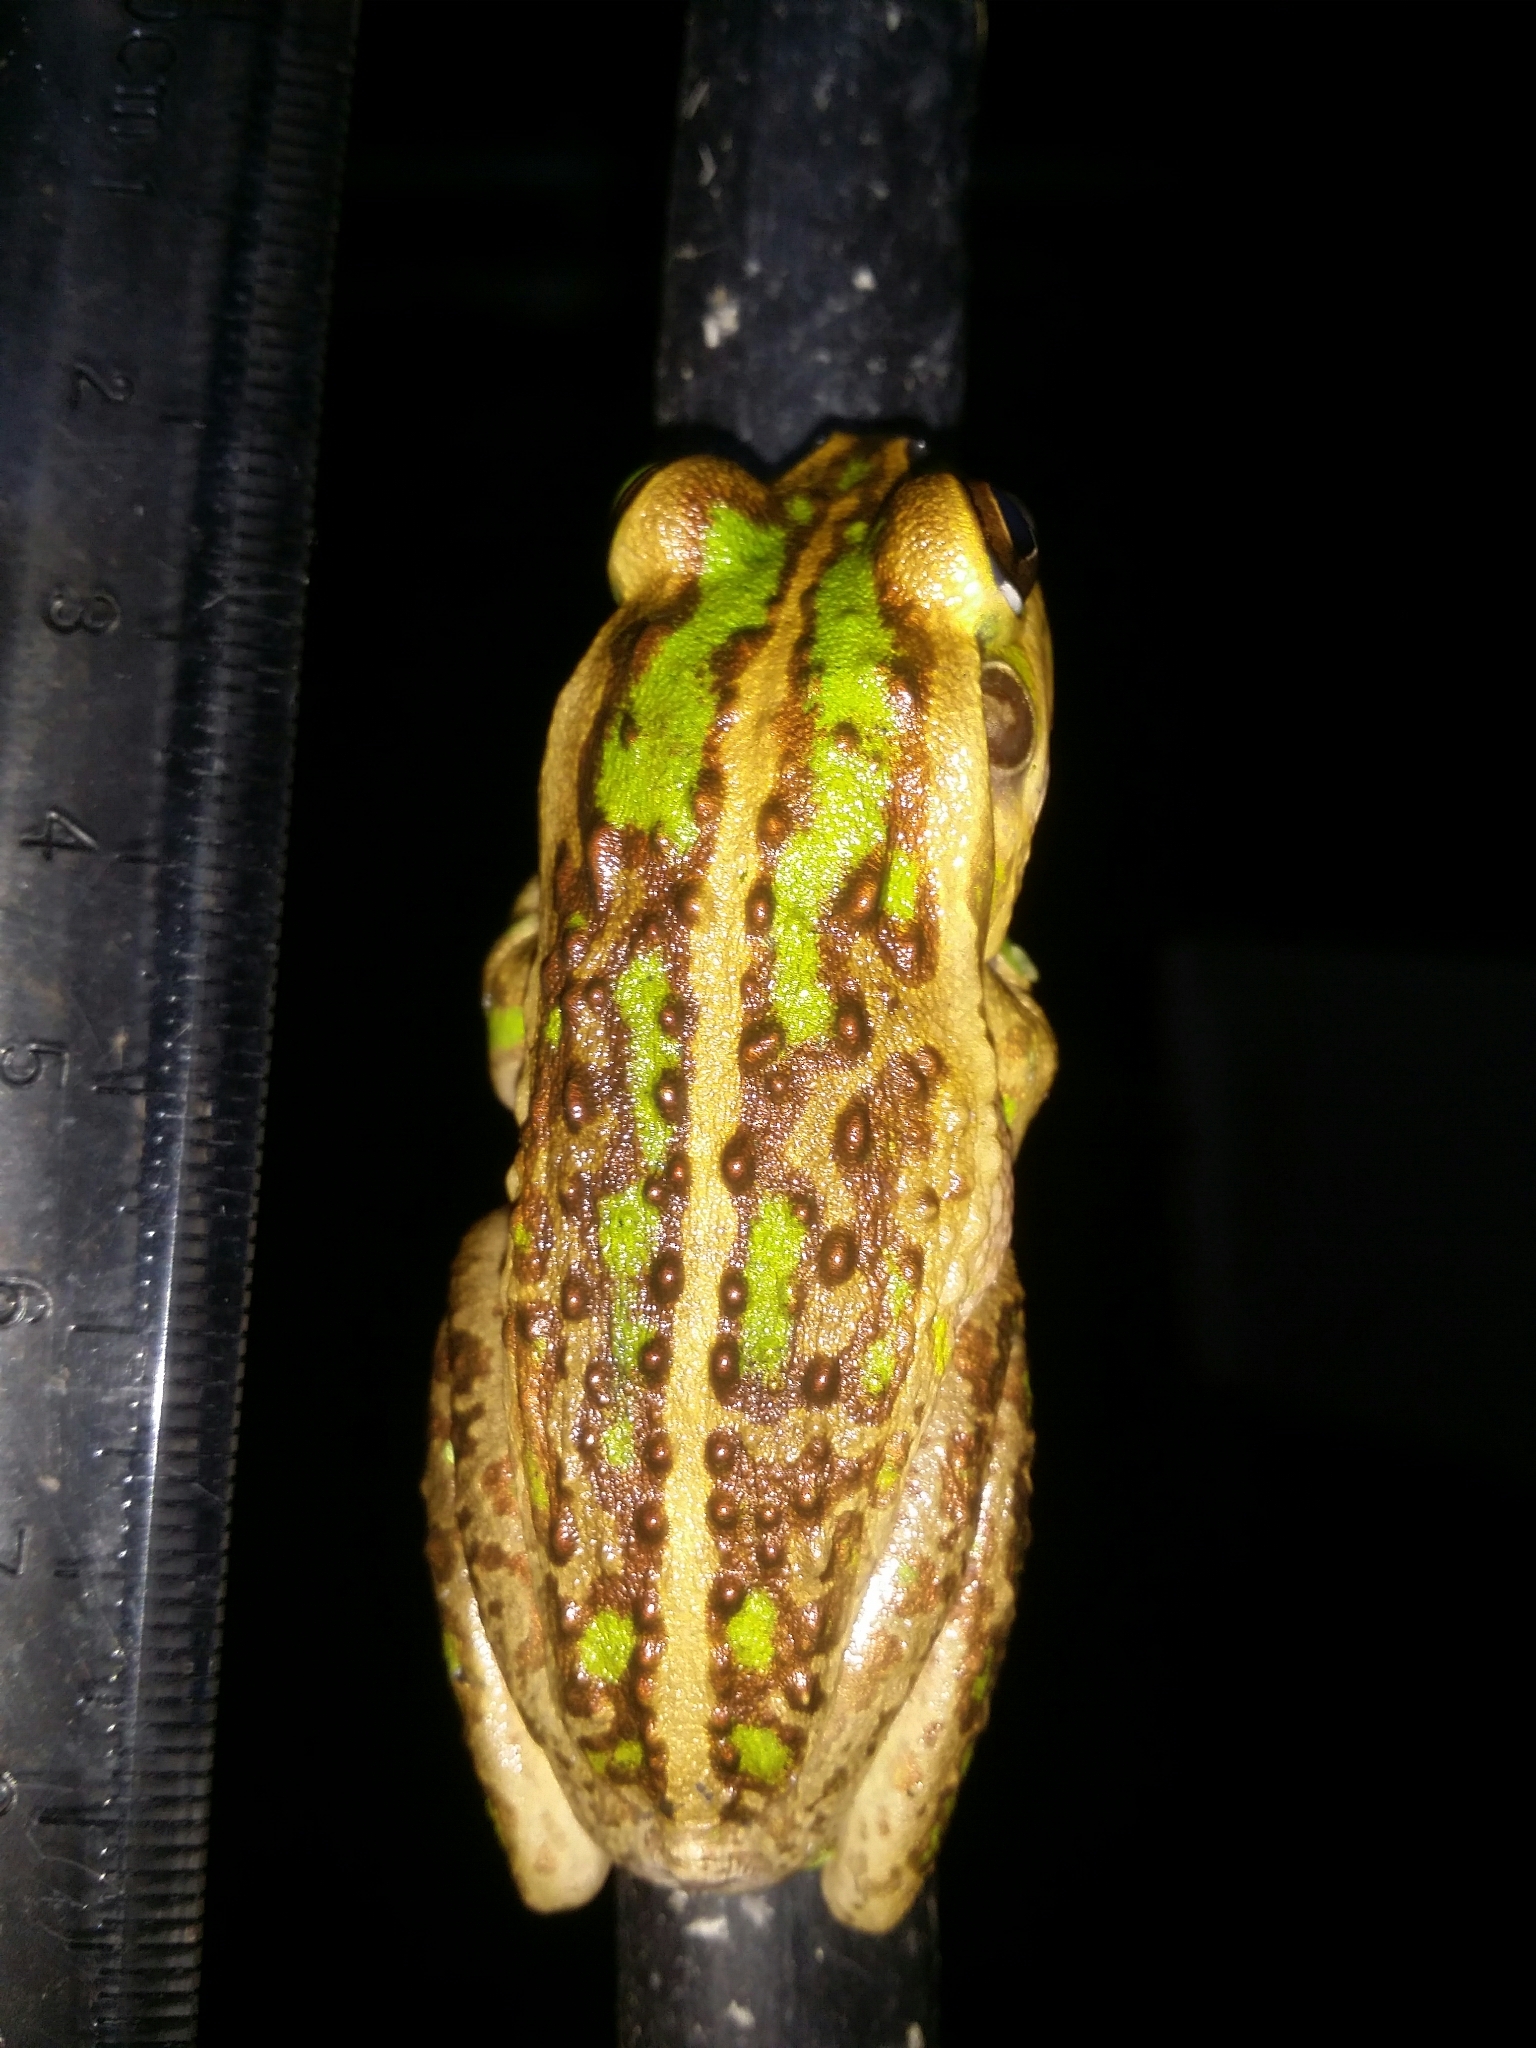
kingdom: Animalia
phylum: Chordata
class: Amphibia
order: Anura
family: Pelodryadidae
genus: Ranoidea
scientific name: Ranoidea moorei
